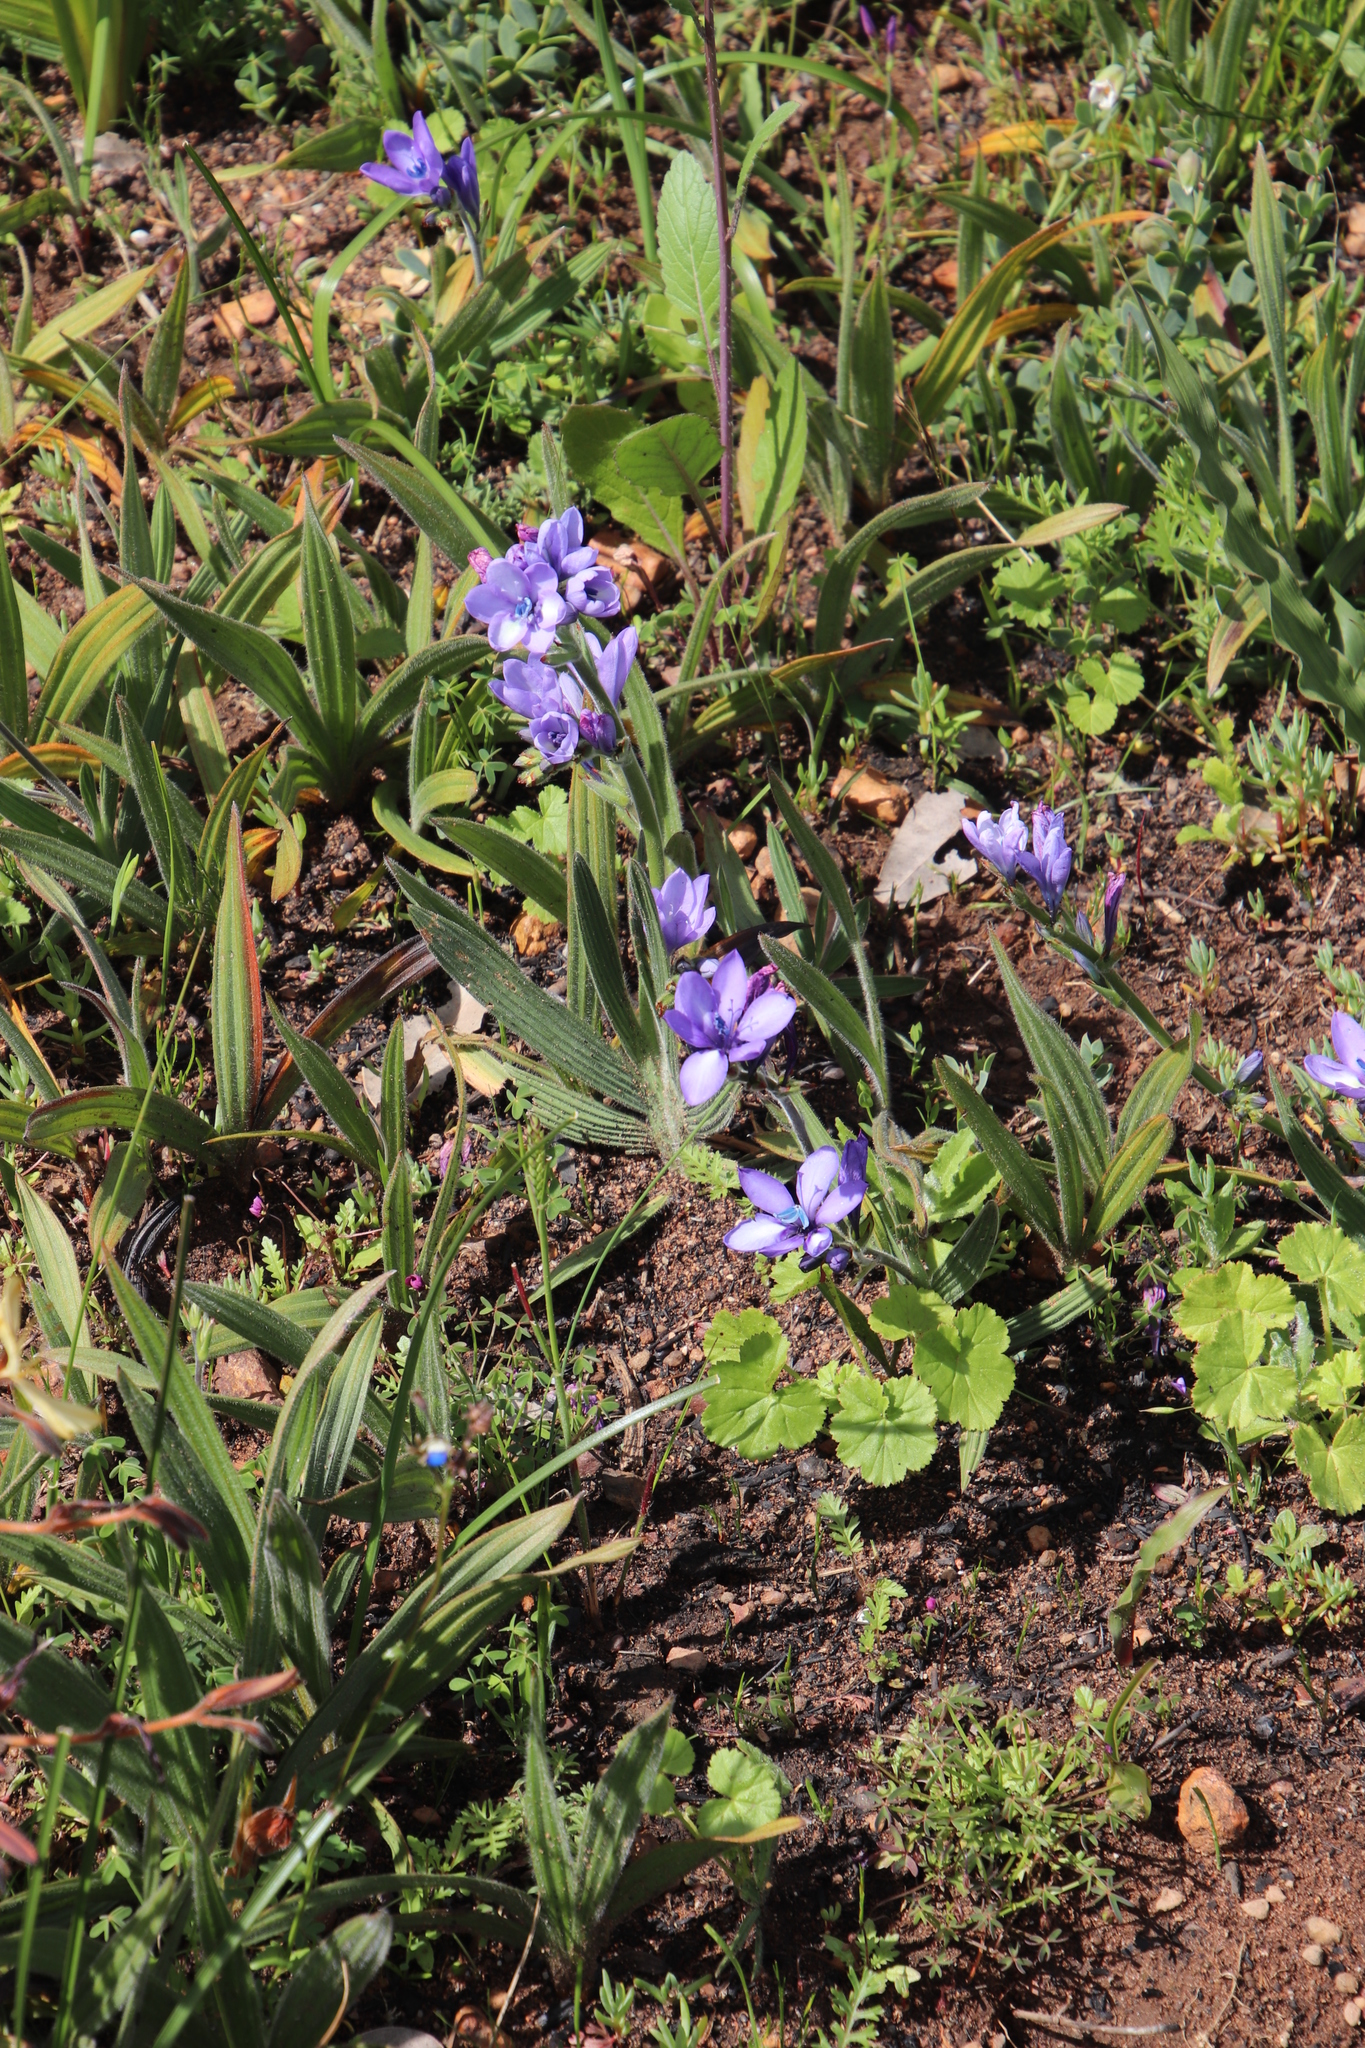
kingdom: Plantae
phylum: Tracheophyta
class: Liliopsida
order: Asparagales
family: Iridaceae
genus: Babiana
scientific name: Babiana fragrans
